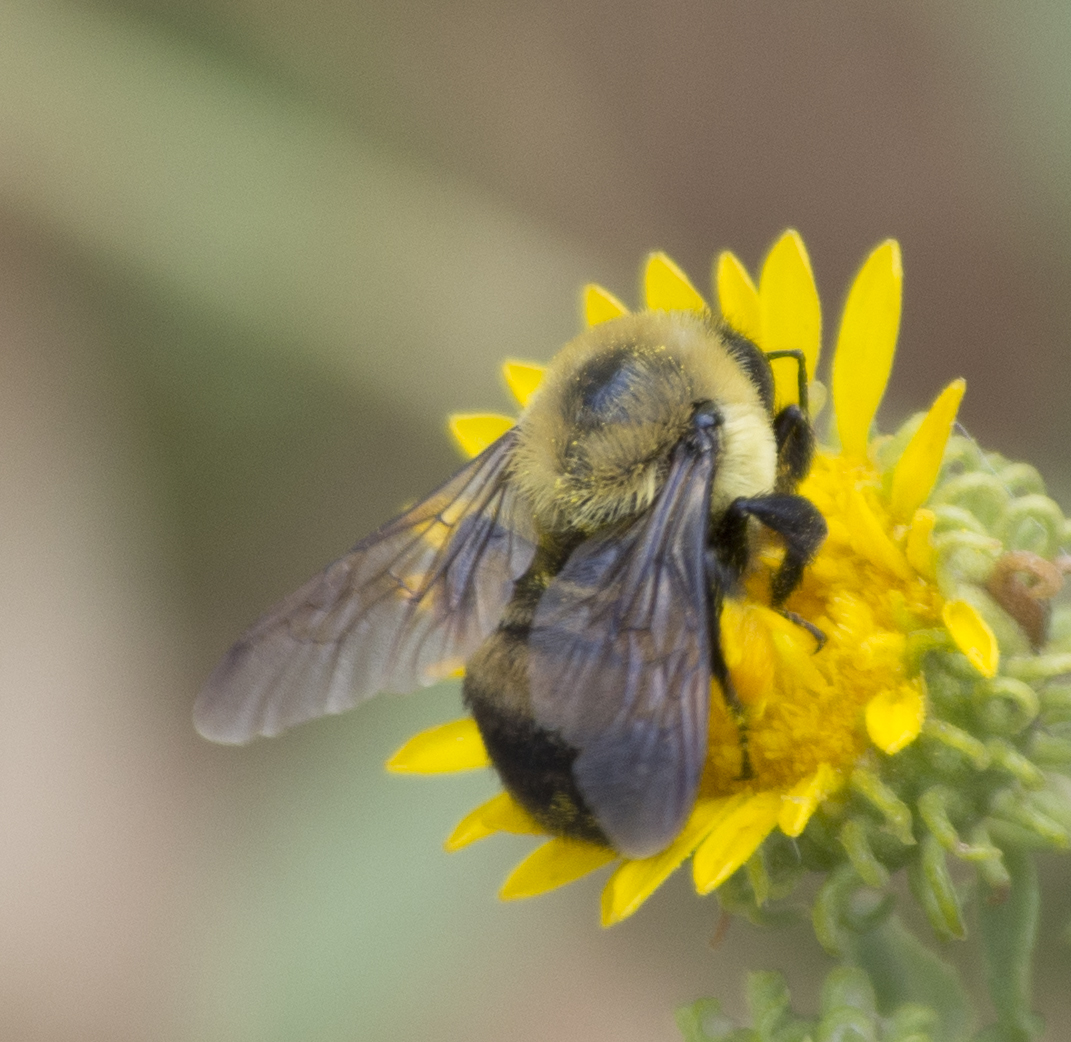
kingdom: Animalia
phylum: Arthropoda
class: Insecta
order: Hymenoptera
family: Apidae
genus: Bombus
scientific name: Bombus griseocollis
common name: Brown-belted bumble bee
